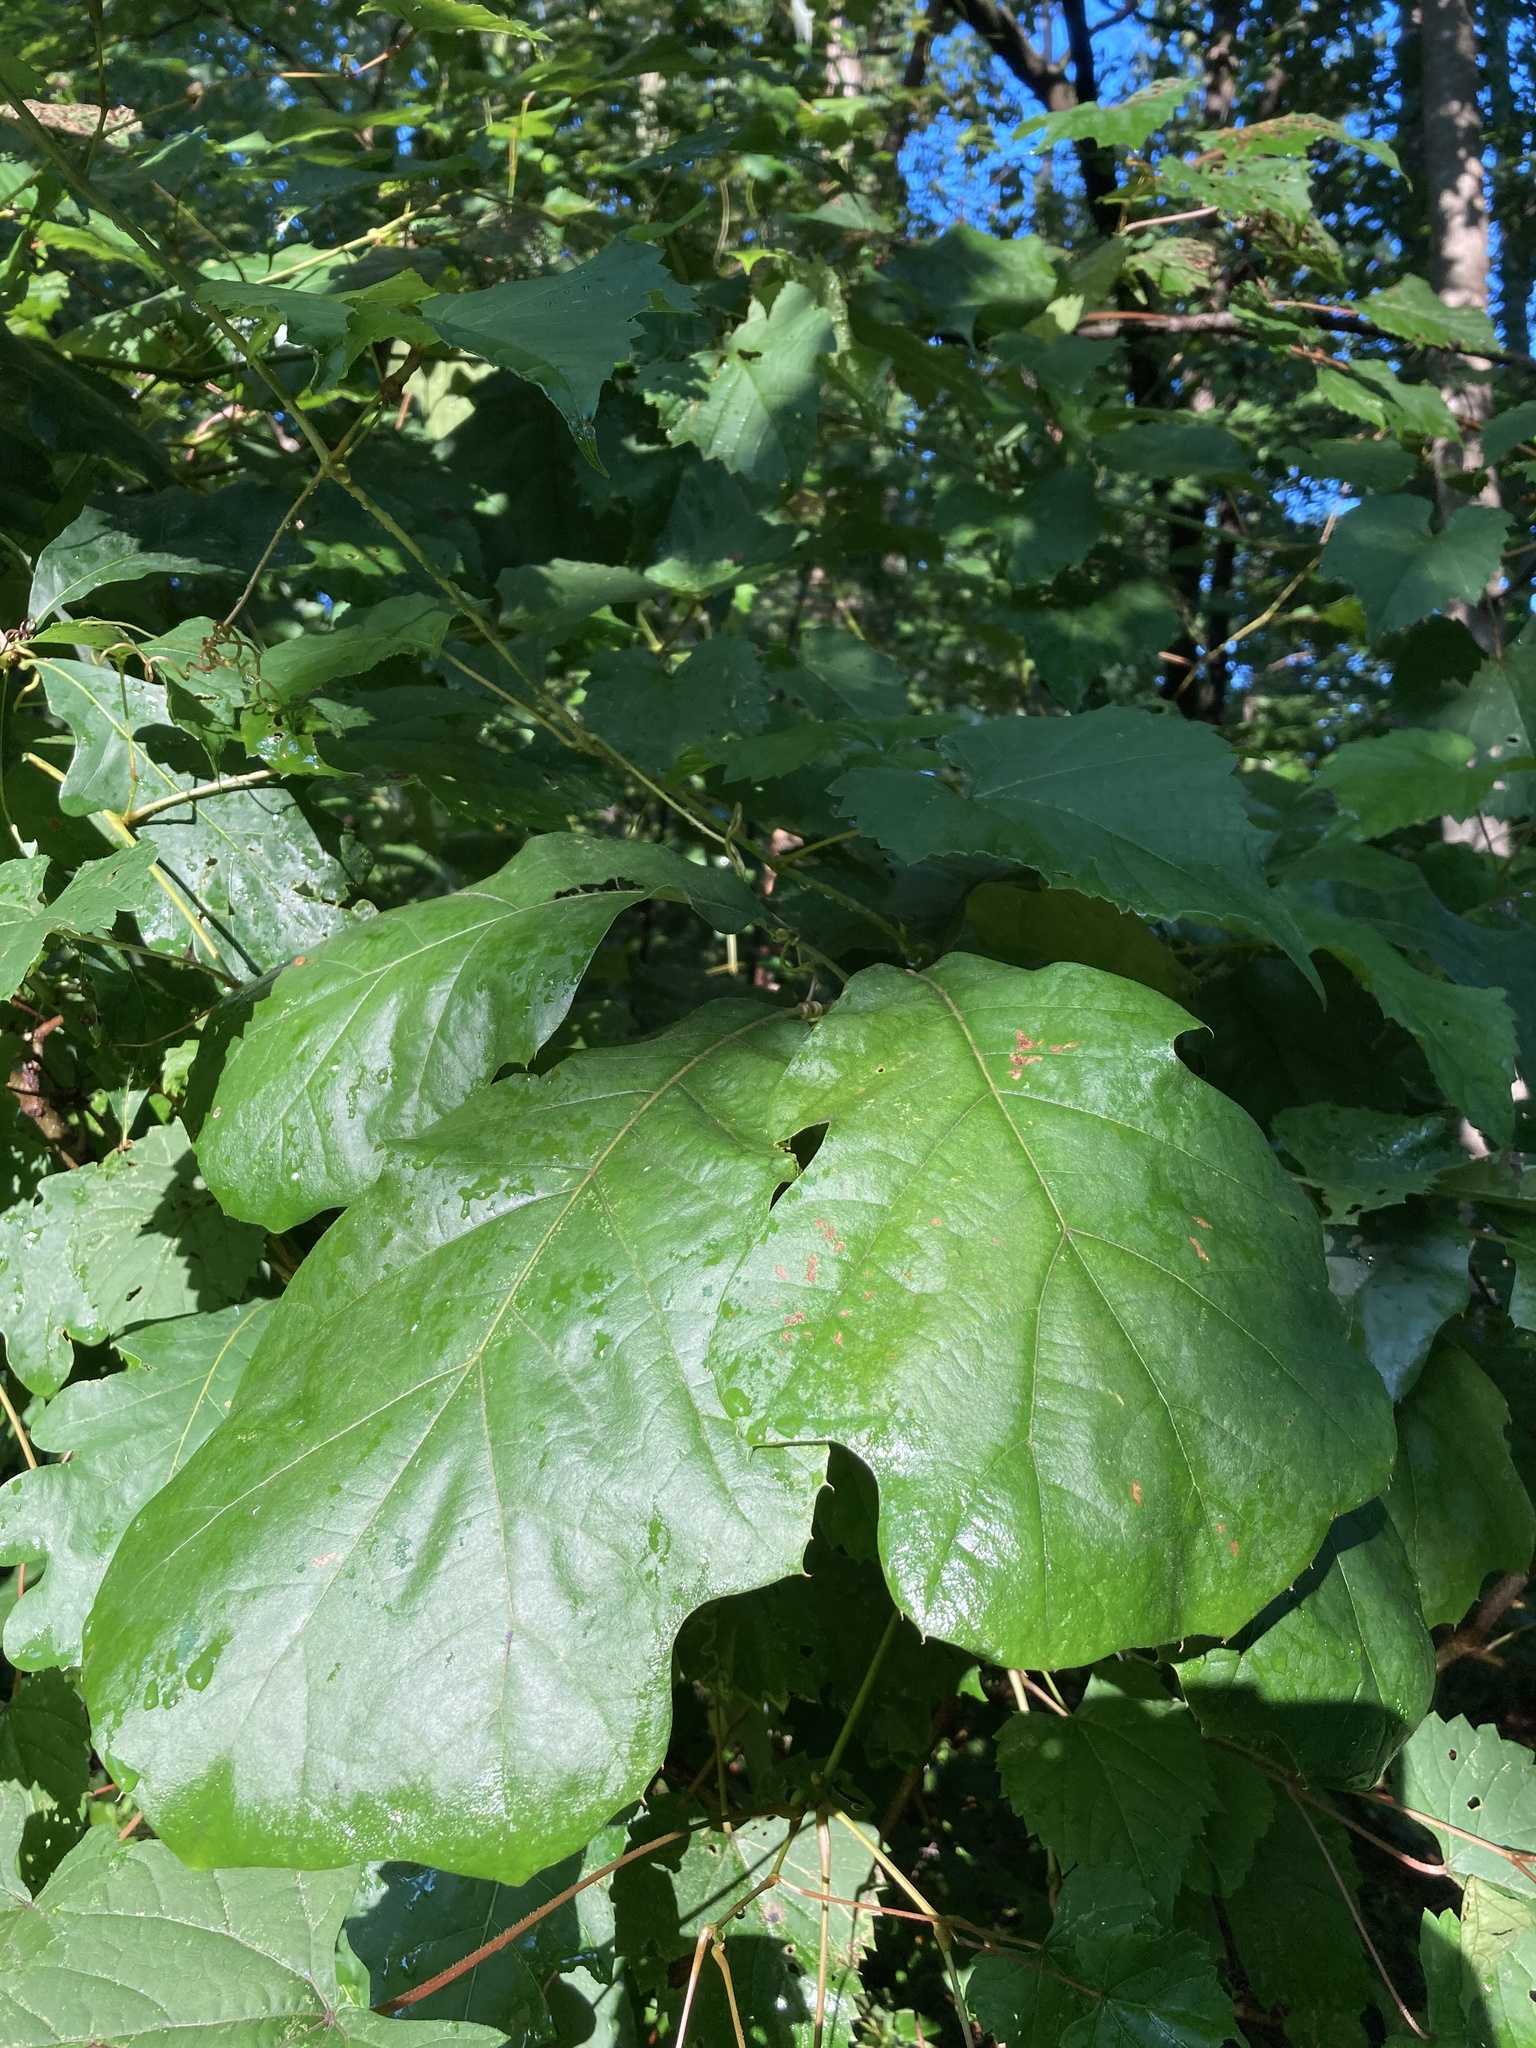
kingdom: Plantae
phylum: Tracheophyta
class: Magnoliopsida
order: Fagales
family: Fagaceae
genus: Quercus
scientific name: Quercus velutina
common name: Black oak
